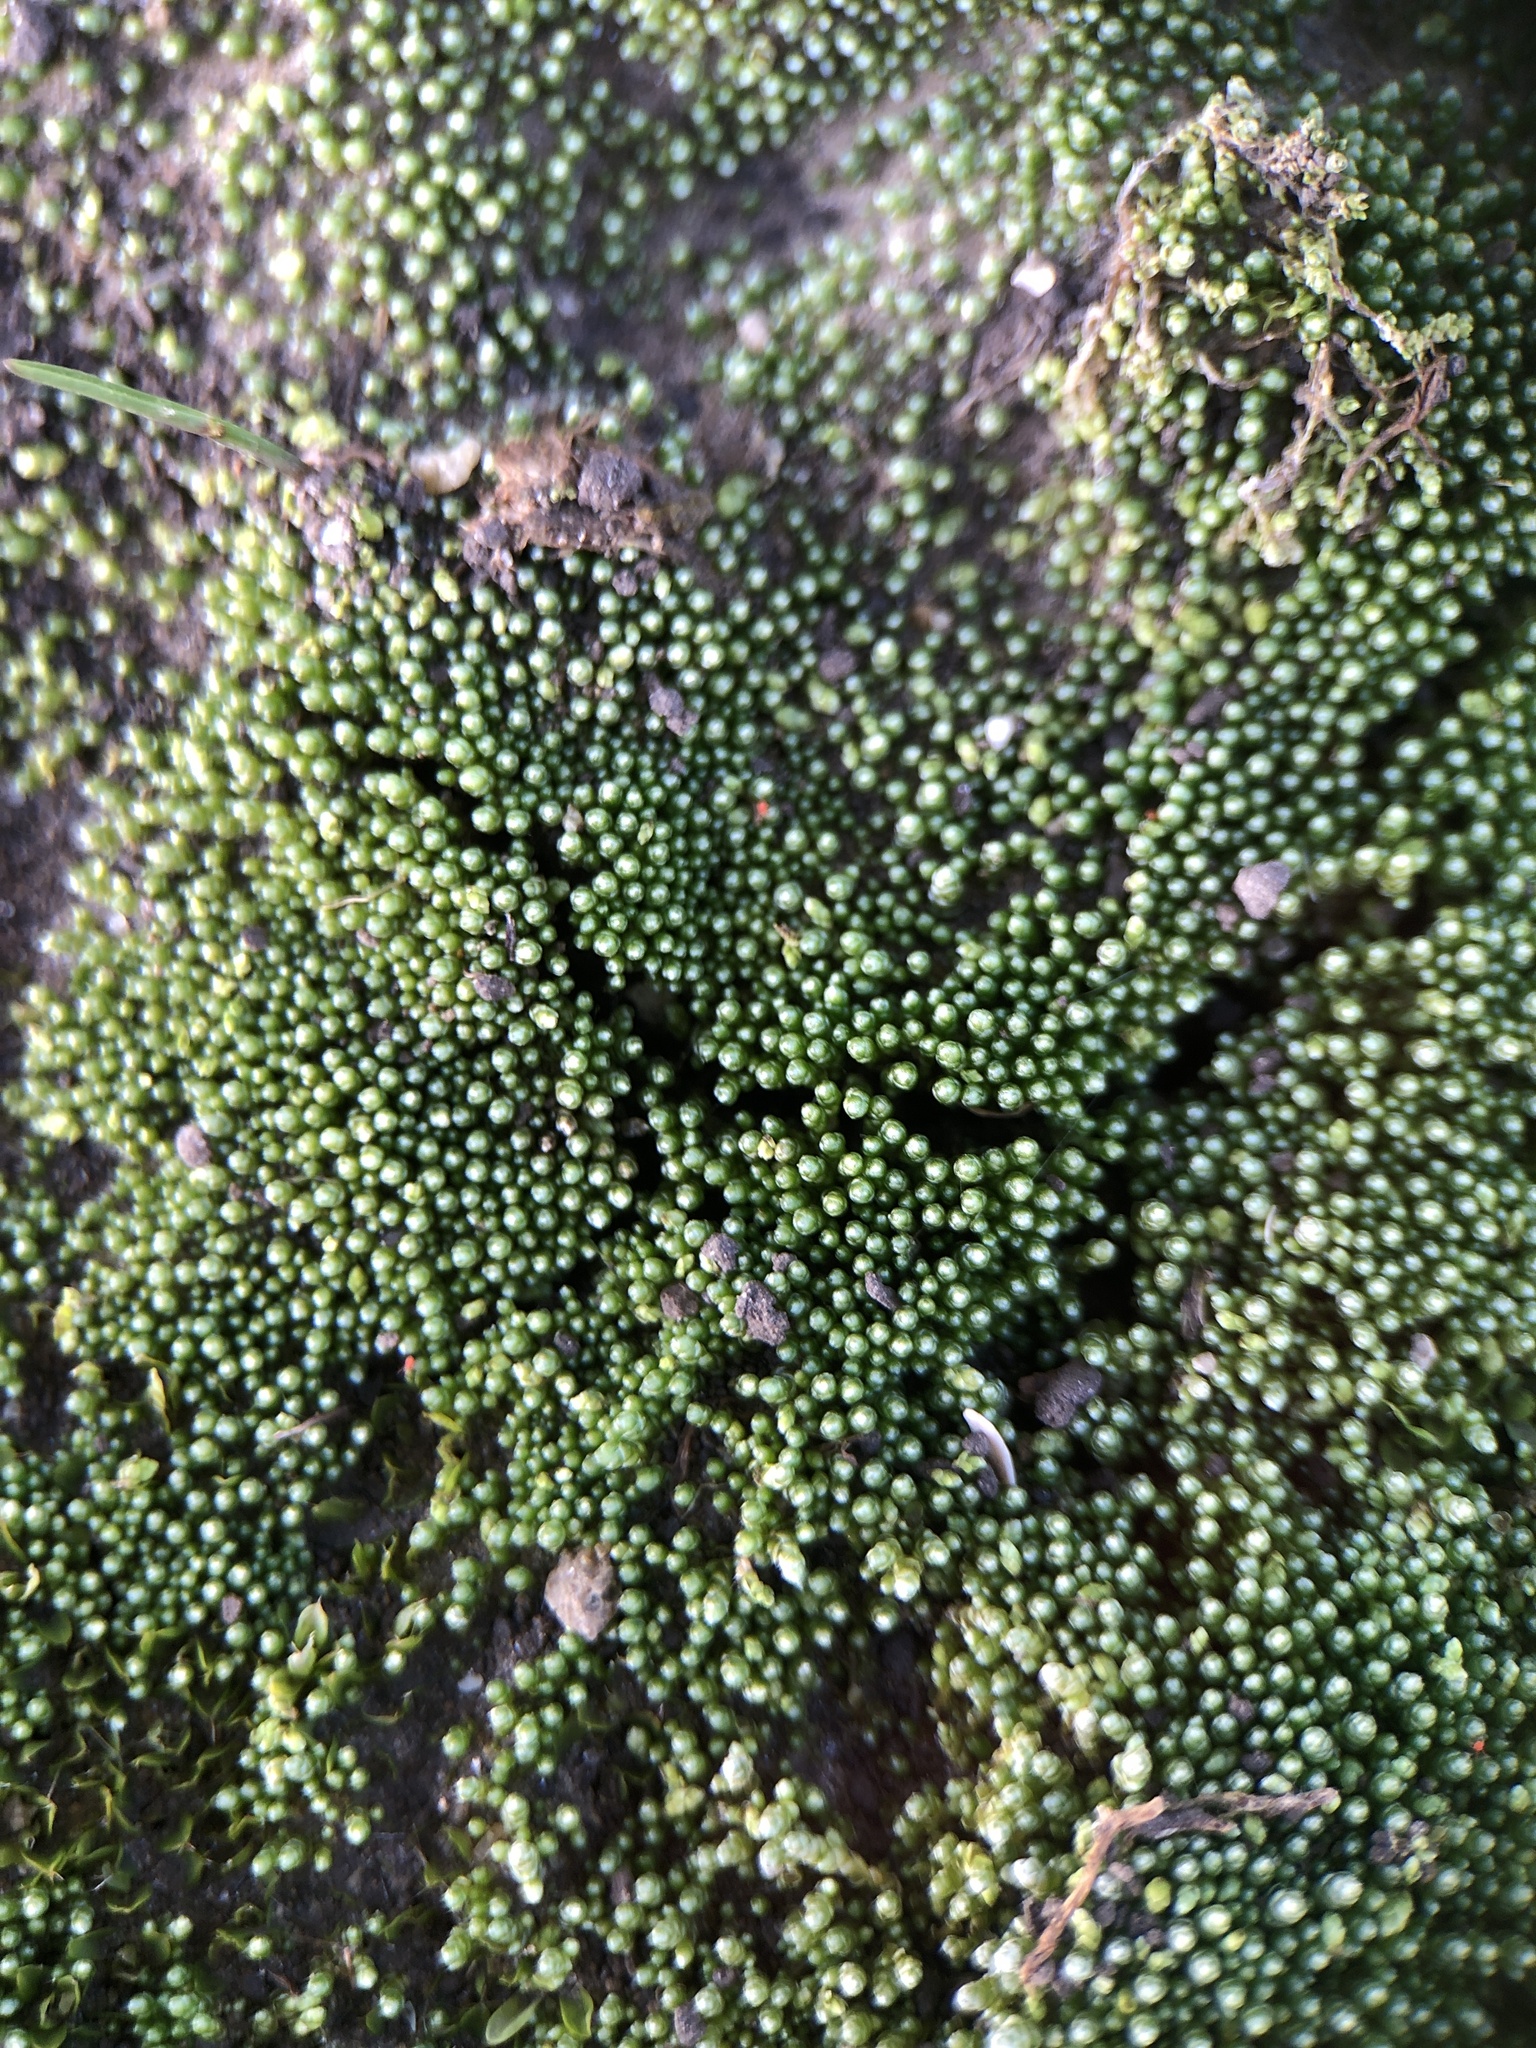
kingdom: Plantae
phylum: Bryophyta
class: Bryopsida
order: Bryales
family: Bryaceae
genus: Bryum
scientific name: Bryum argenteum
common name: Silver-moss
